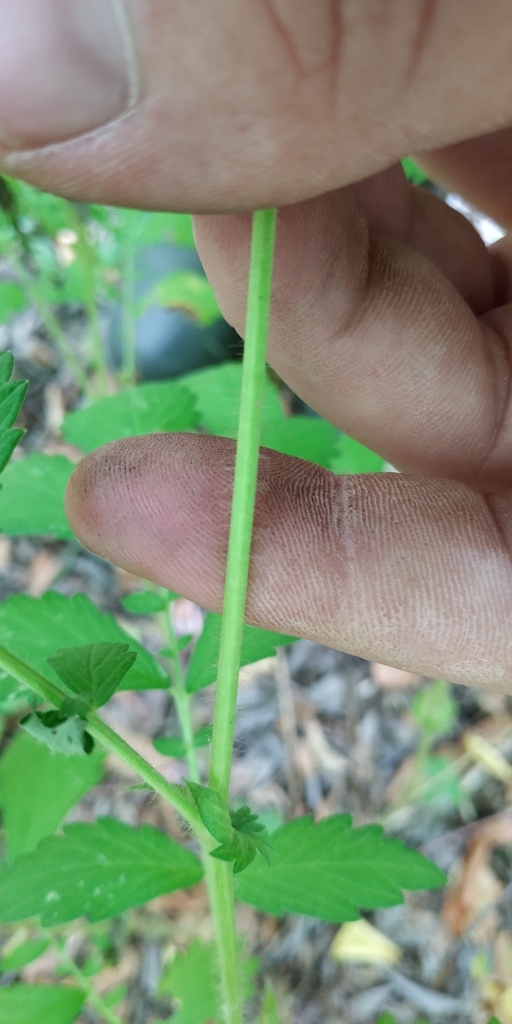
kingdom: Plantae
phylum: Tracheophyta
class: Magnoliopsida
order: Rosales
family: Rosaceae
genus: Agrimonia
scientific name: Agrimonia pilosa
